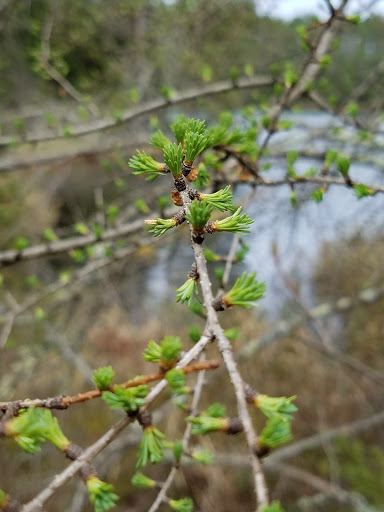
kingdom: Plantae
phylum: Tracheophyta
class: Pinopsida
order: Pinales
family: Pinaceae
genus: Larix
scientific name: Larix laricina
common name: American larch
